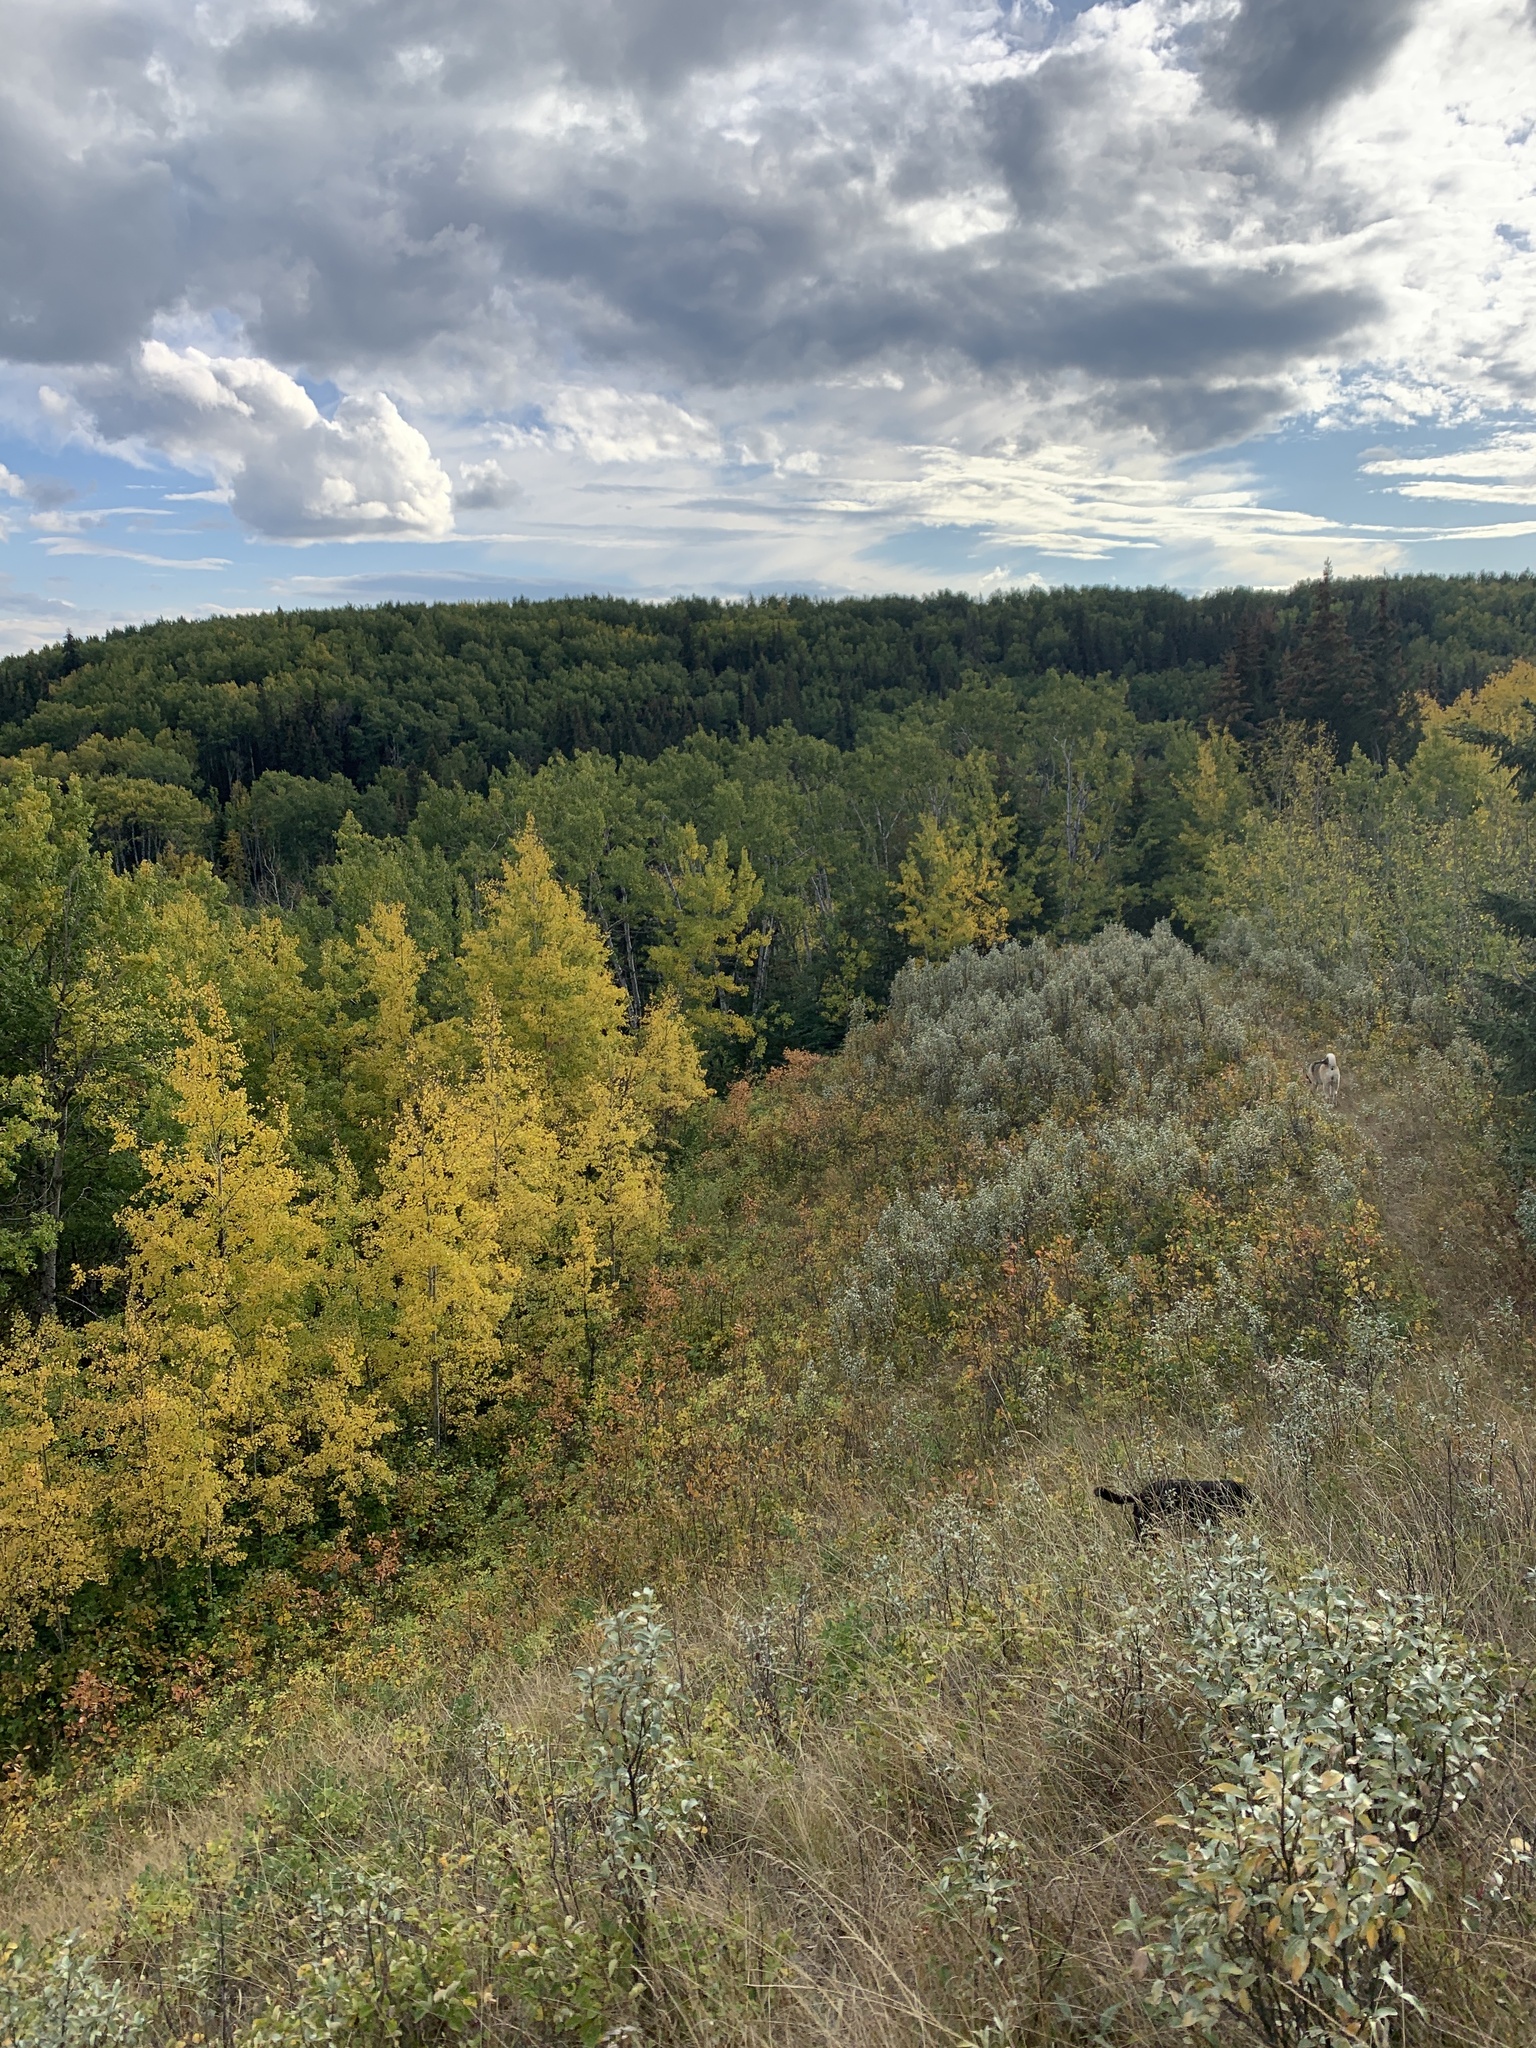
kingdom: Plantae
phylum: Tracheophyta
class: Magnoliopsida
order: Rosales
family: Elaeagnaceae
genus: Elaeagnus
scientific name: Elaeagnus commutata
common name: Silverberry
